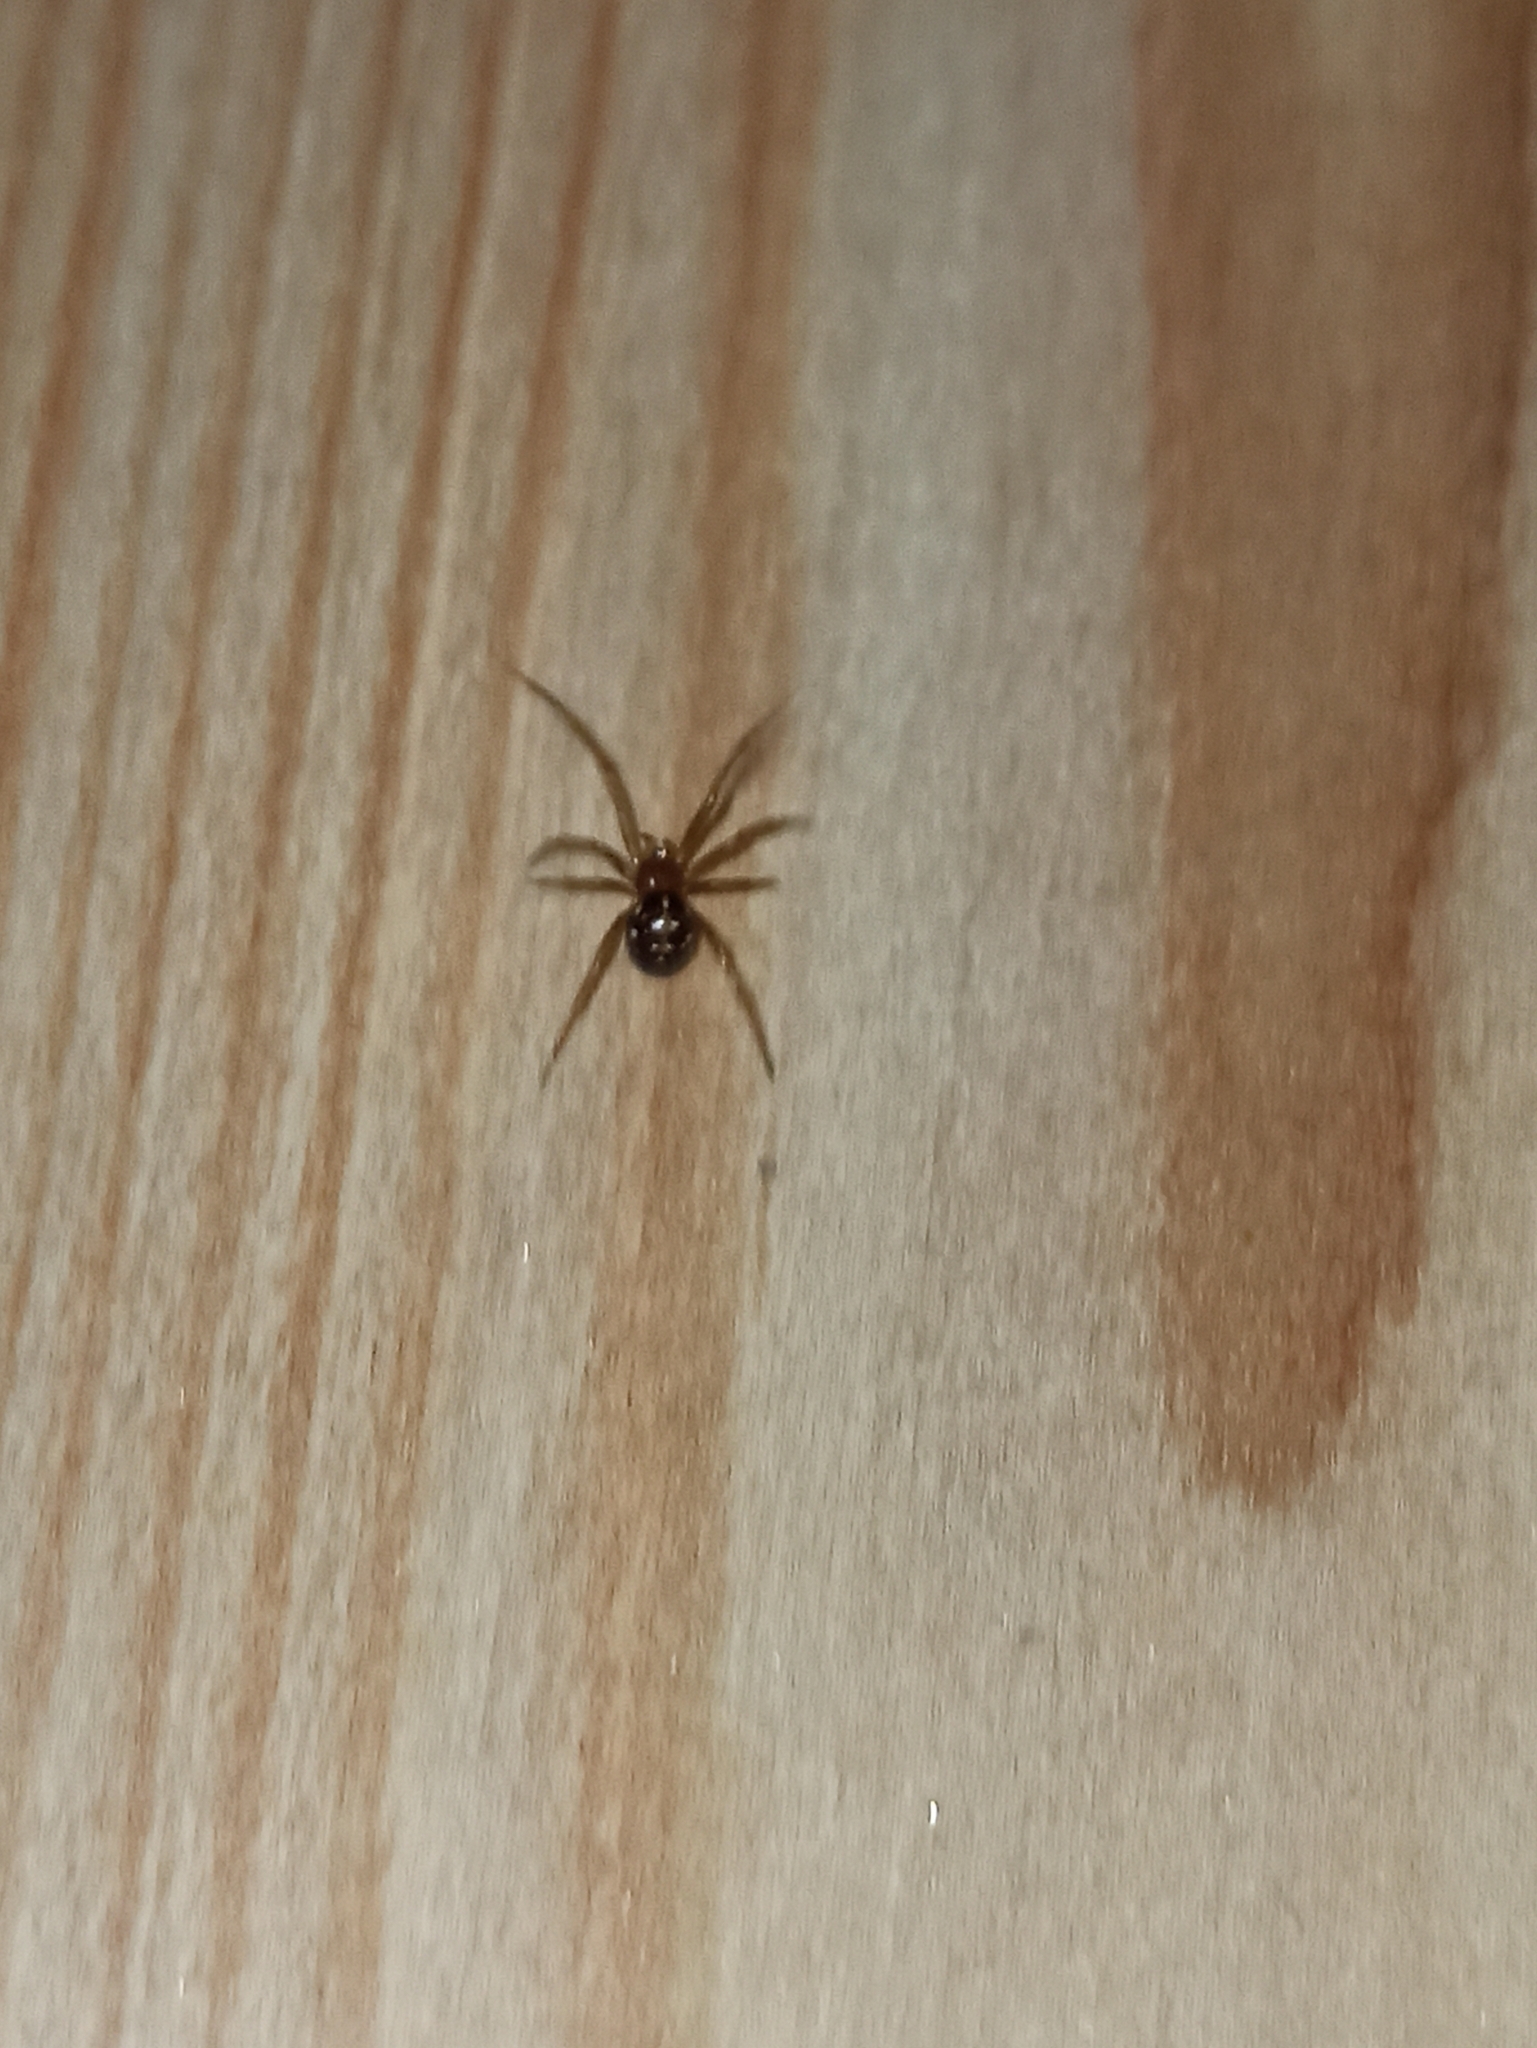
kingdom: Animalia
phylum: Arthropoda
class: Arachnida
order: Araneae
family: Theridiidae
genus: Steatoda
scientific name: Steatoda triangulosa
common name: Triangulate bud spider
